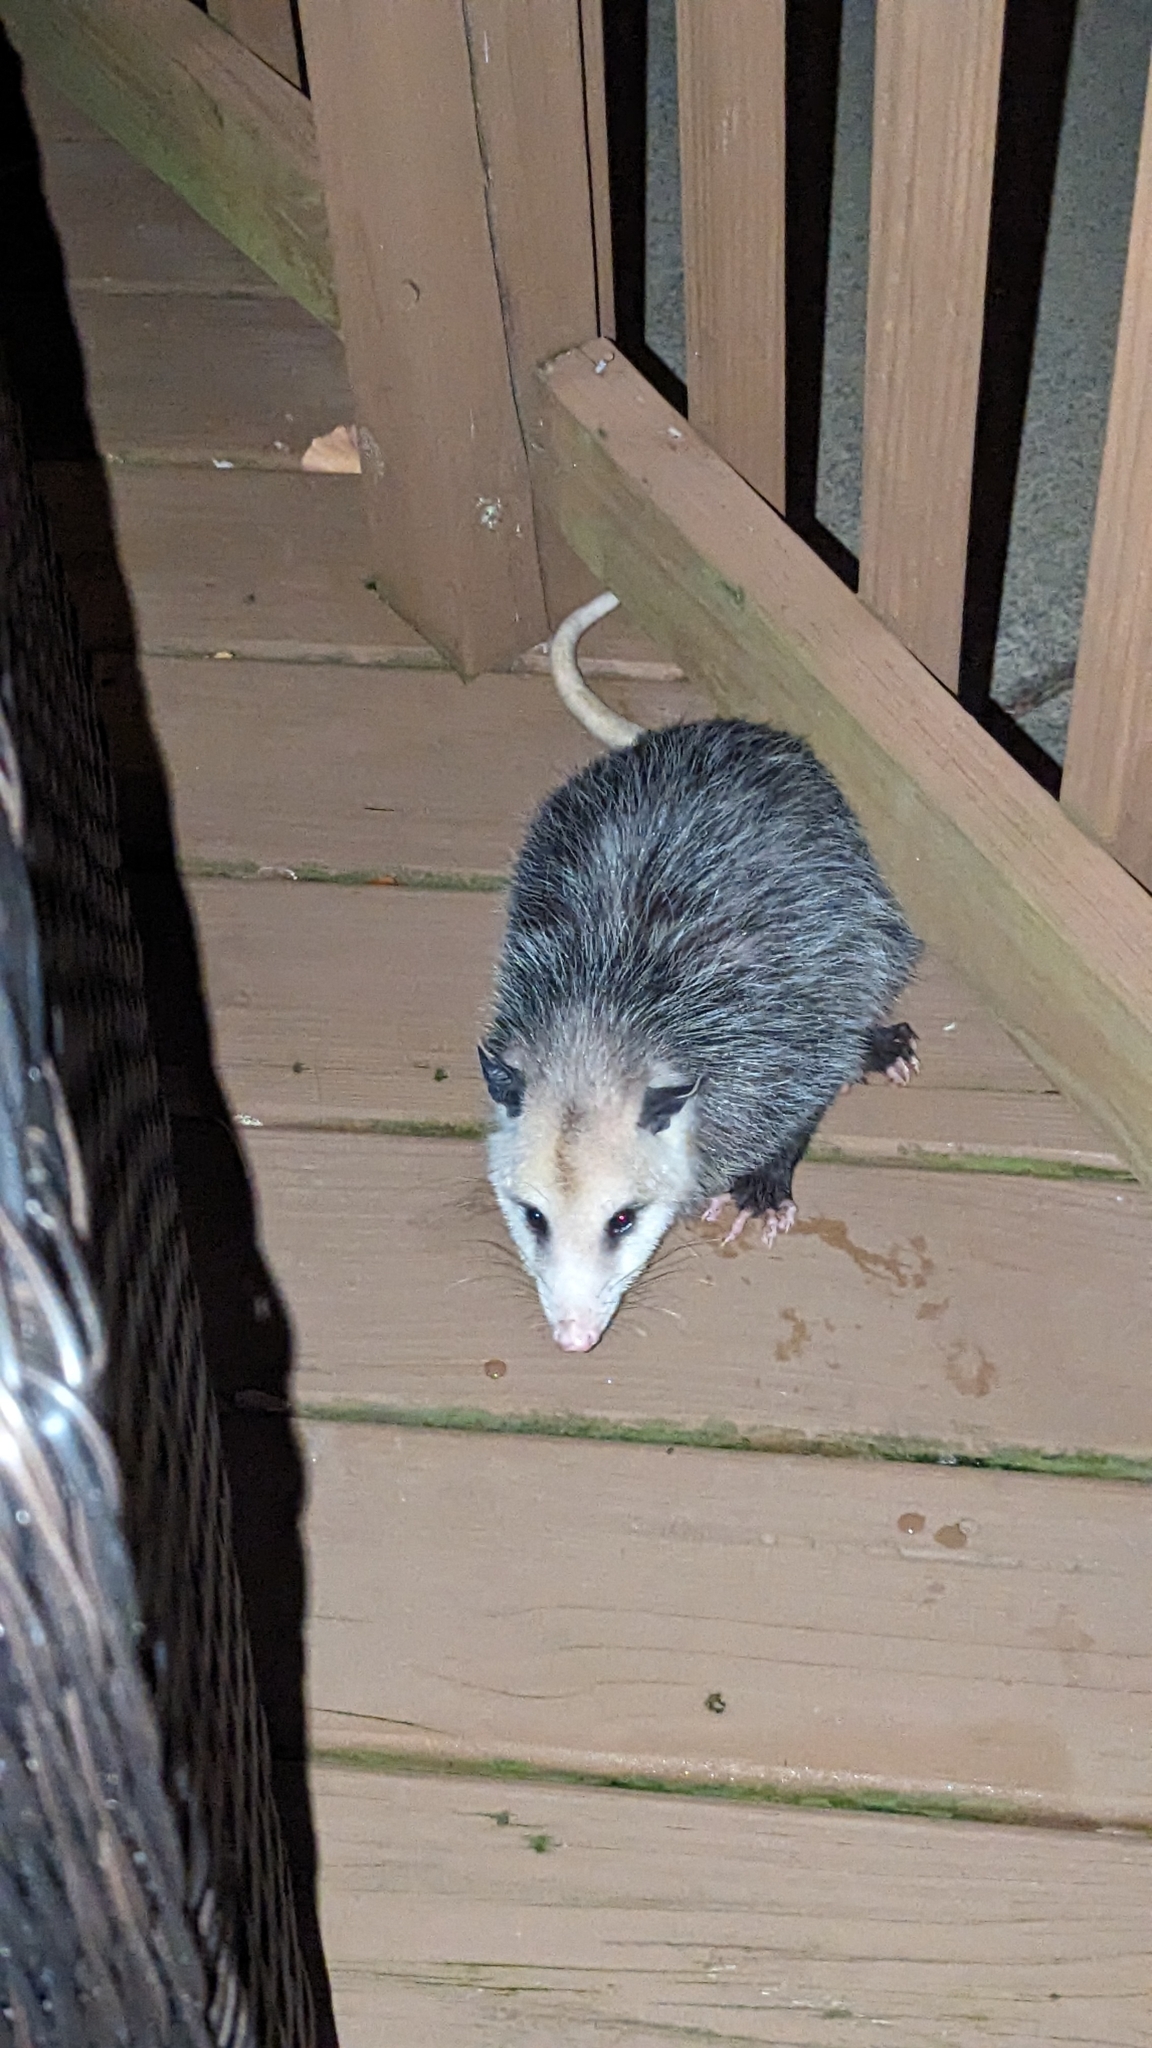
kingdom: Animalia
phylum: Chordata
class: Mammalia
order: Didelphimorphia
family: Didelphidae
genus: Didelphis
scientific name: Didelphis virginiana
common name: Virginia opossum
